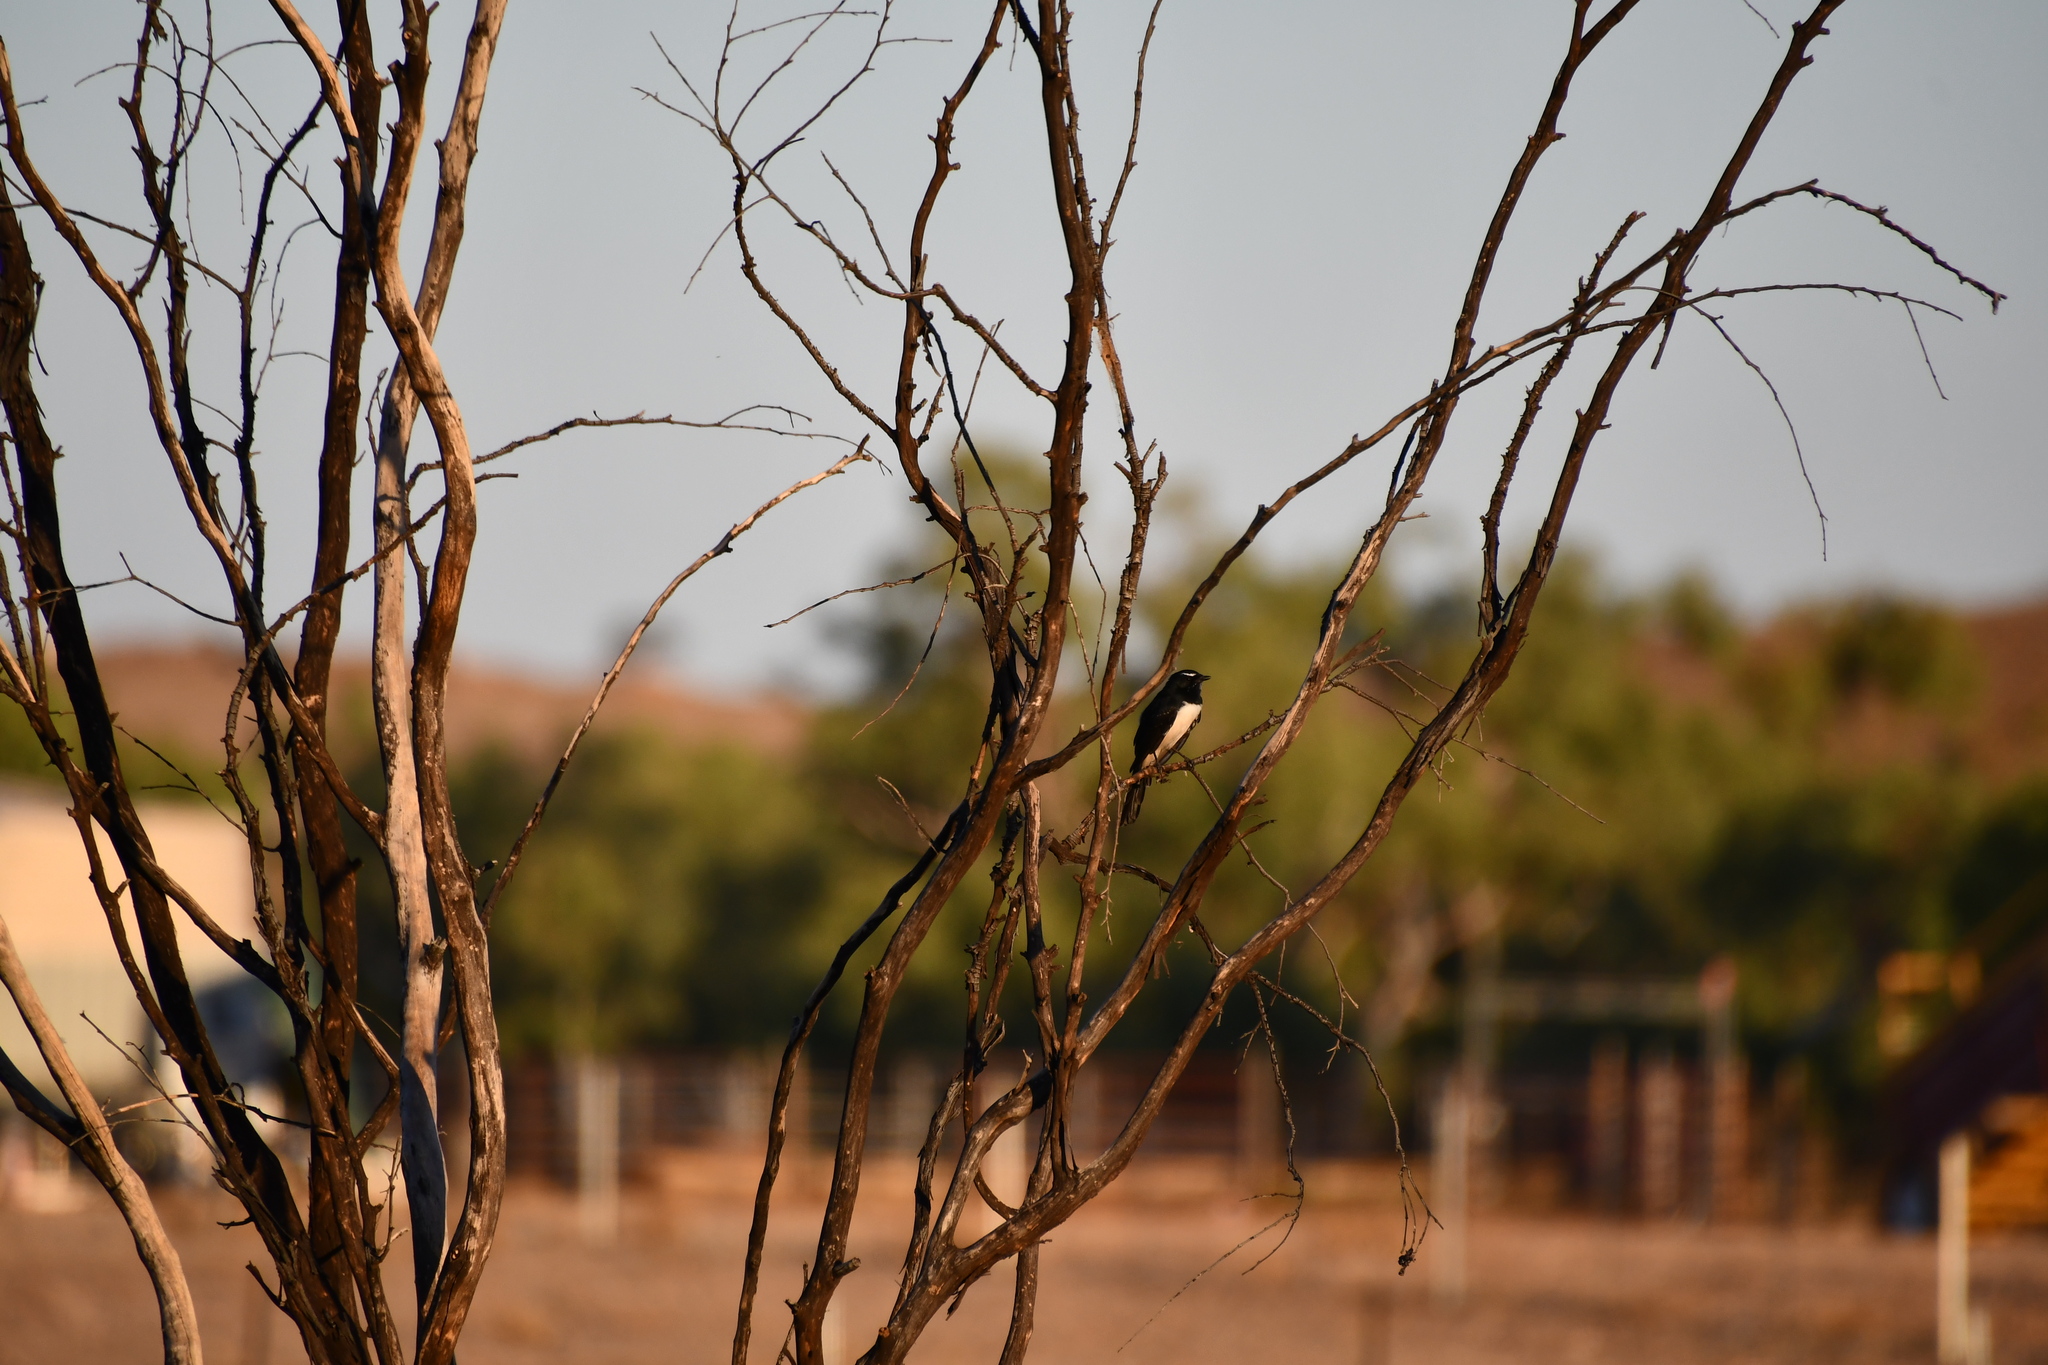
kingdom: Animalia
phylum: Chordata
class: Aves
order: Passeriformes
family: Rhipiduridae
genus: Rhipidura
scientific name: Rhipidura leucophrys
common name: Willie wagtail
